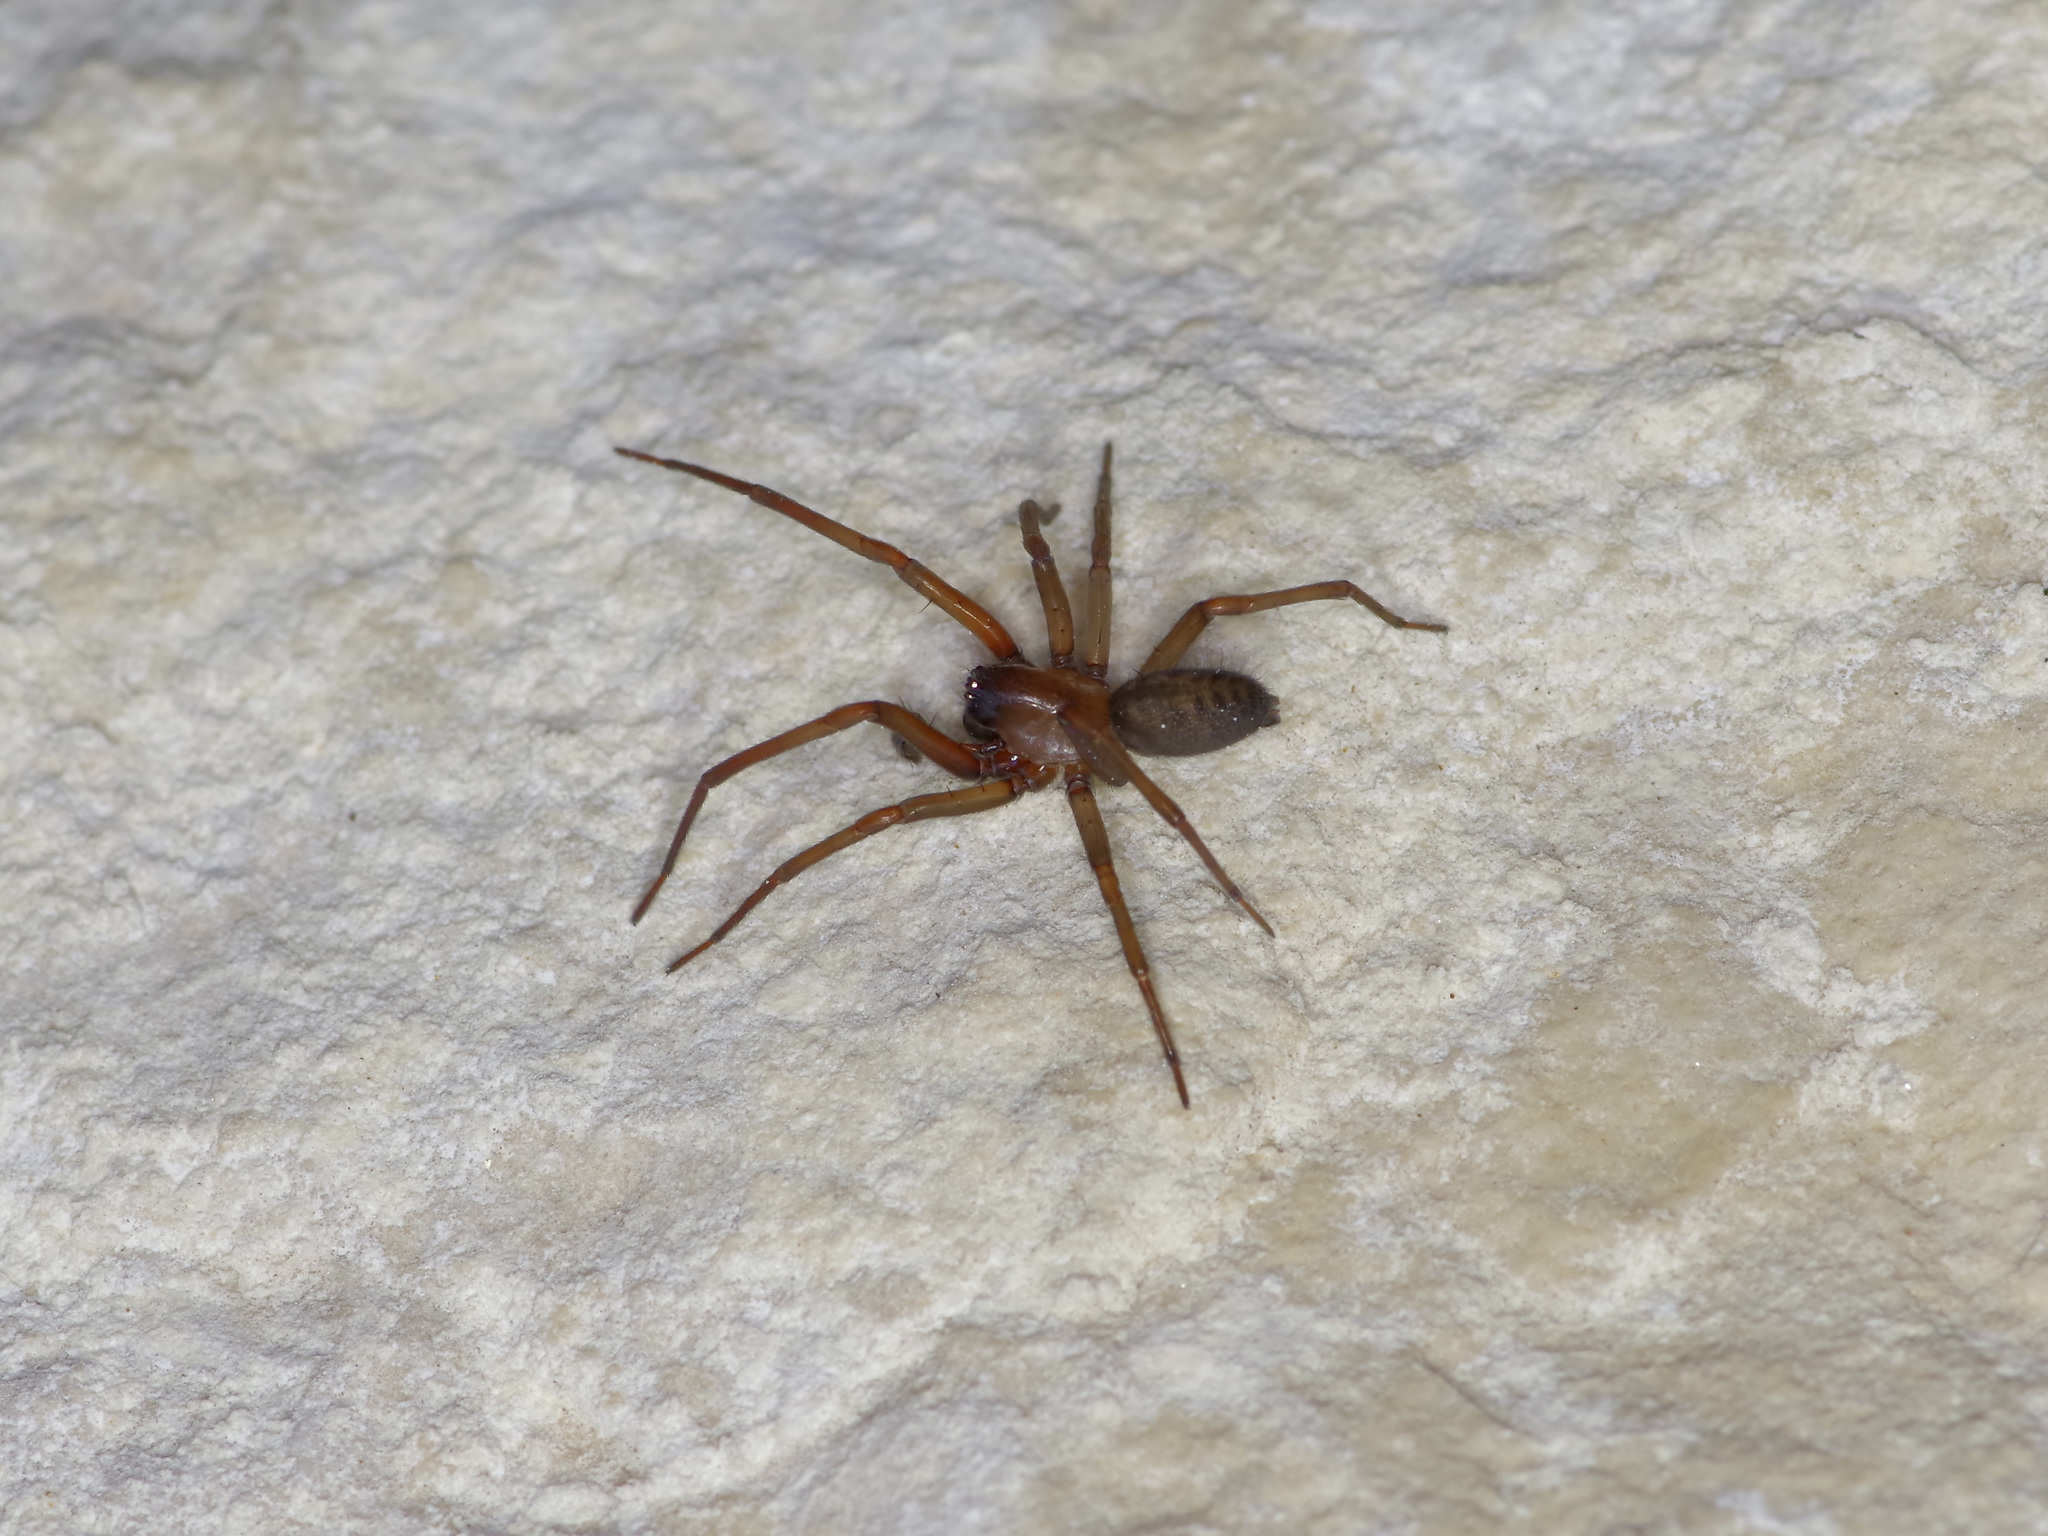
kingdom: Animalia
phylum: Arthropoda
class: Arachnida
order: Araneae
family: Desidae
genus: Metaltella
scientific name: Metaltella simoni
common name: Cribellate spider
